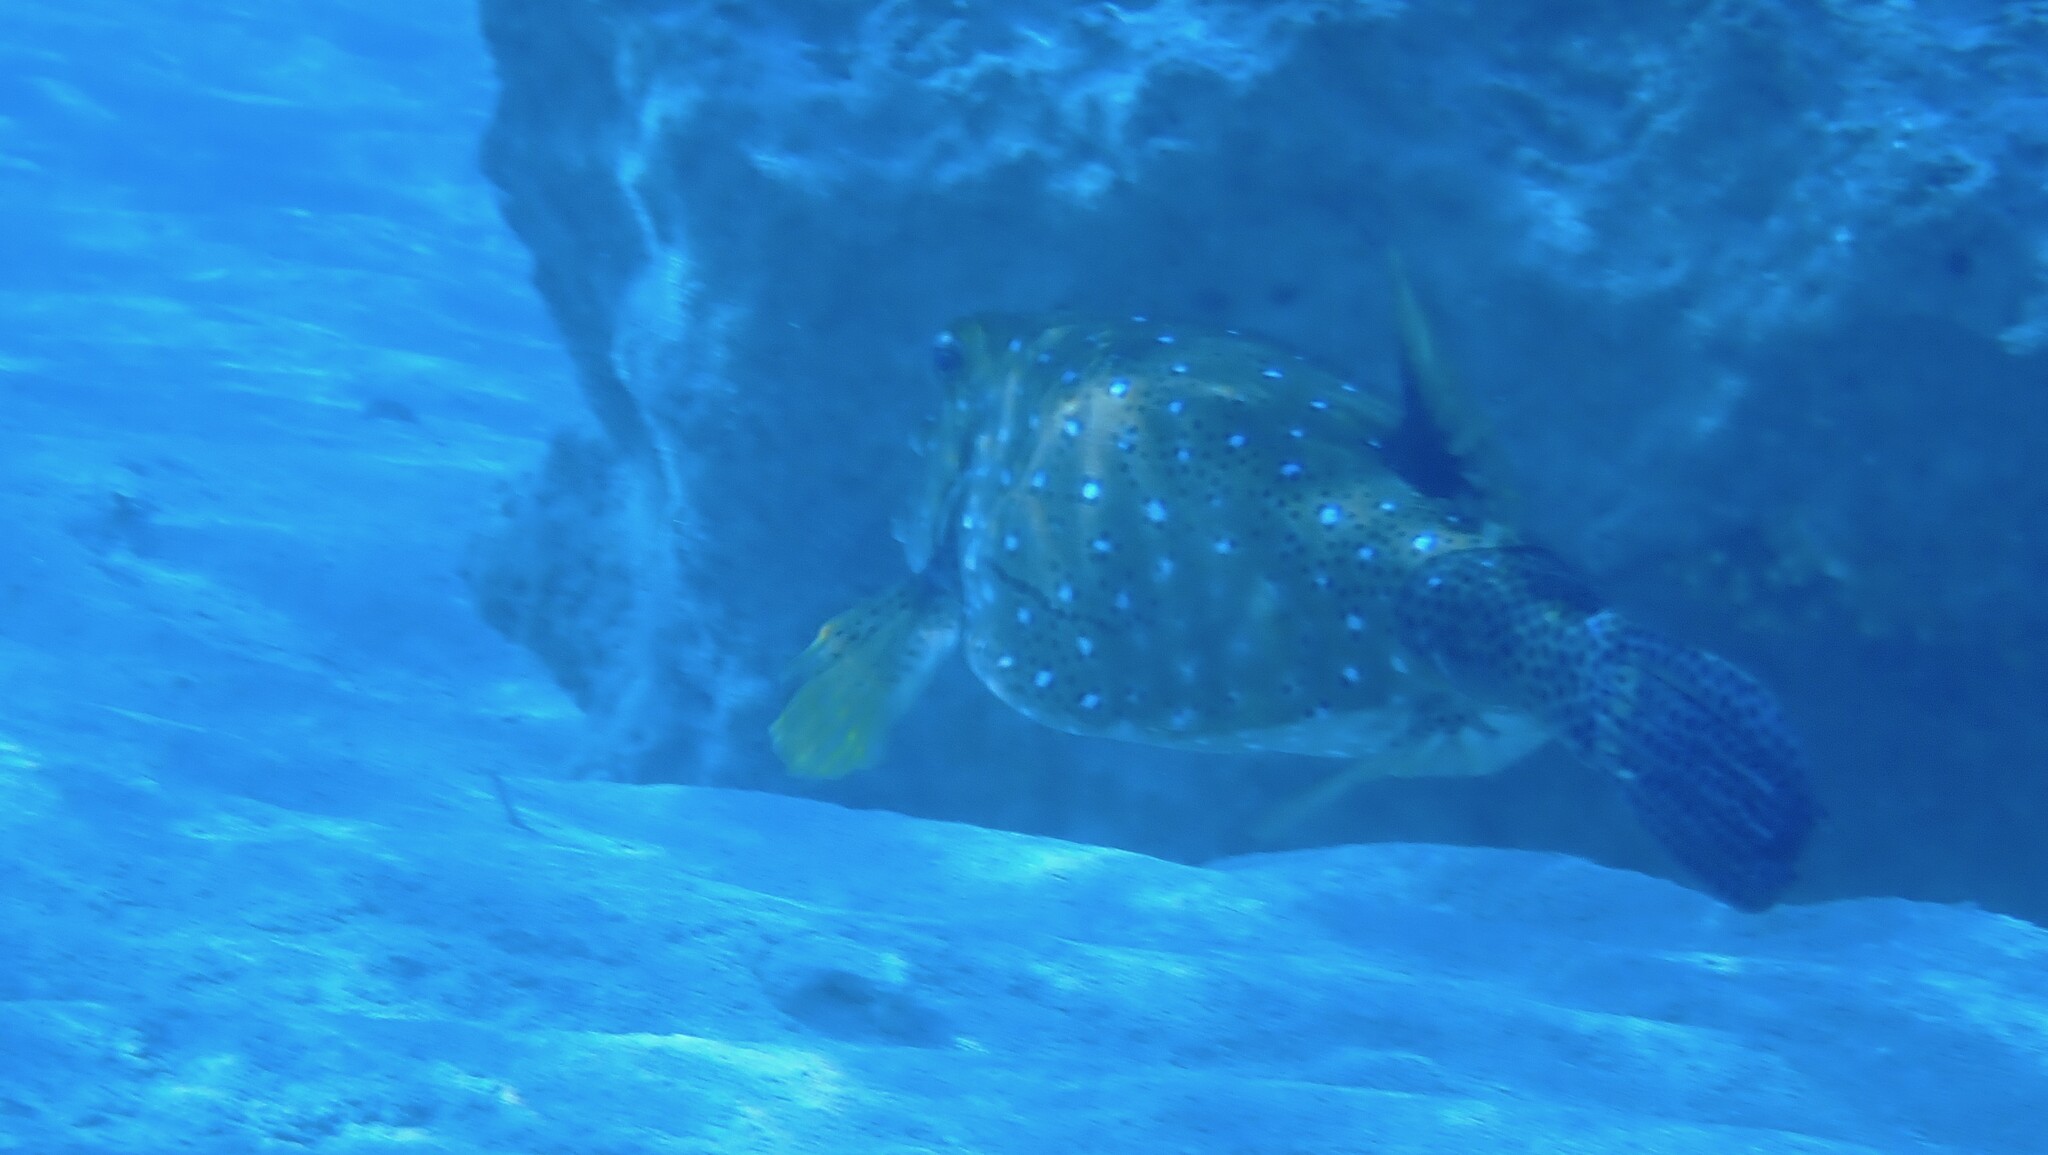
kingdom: Animalia
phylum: Chordata
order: Tetraodontiformes
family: Ostraciidae
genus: Ostracion
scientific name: Ostracion cubicus
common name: Cube trunkfish
